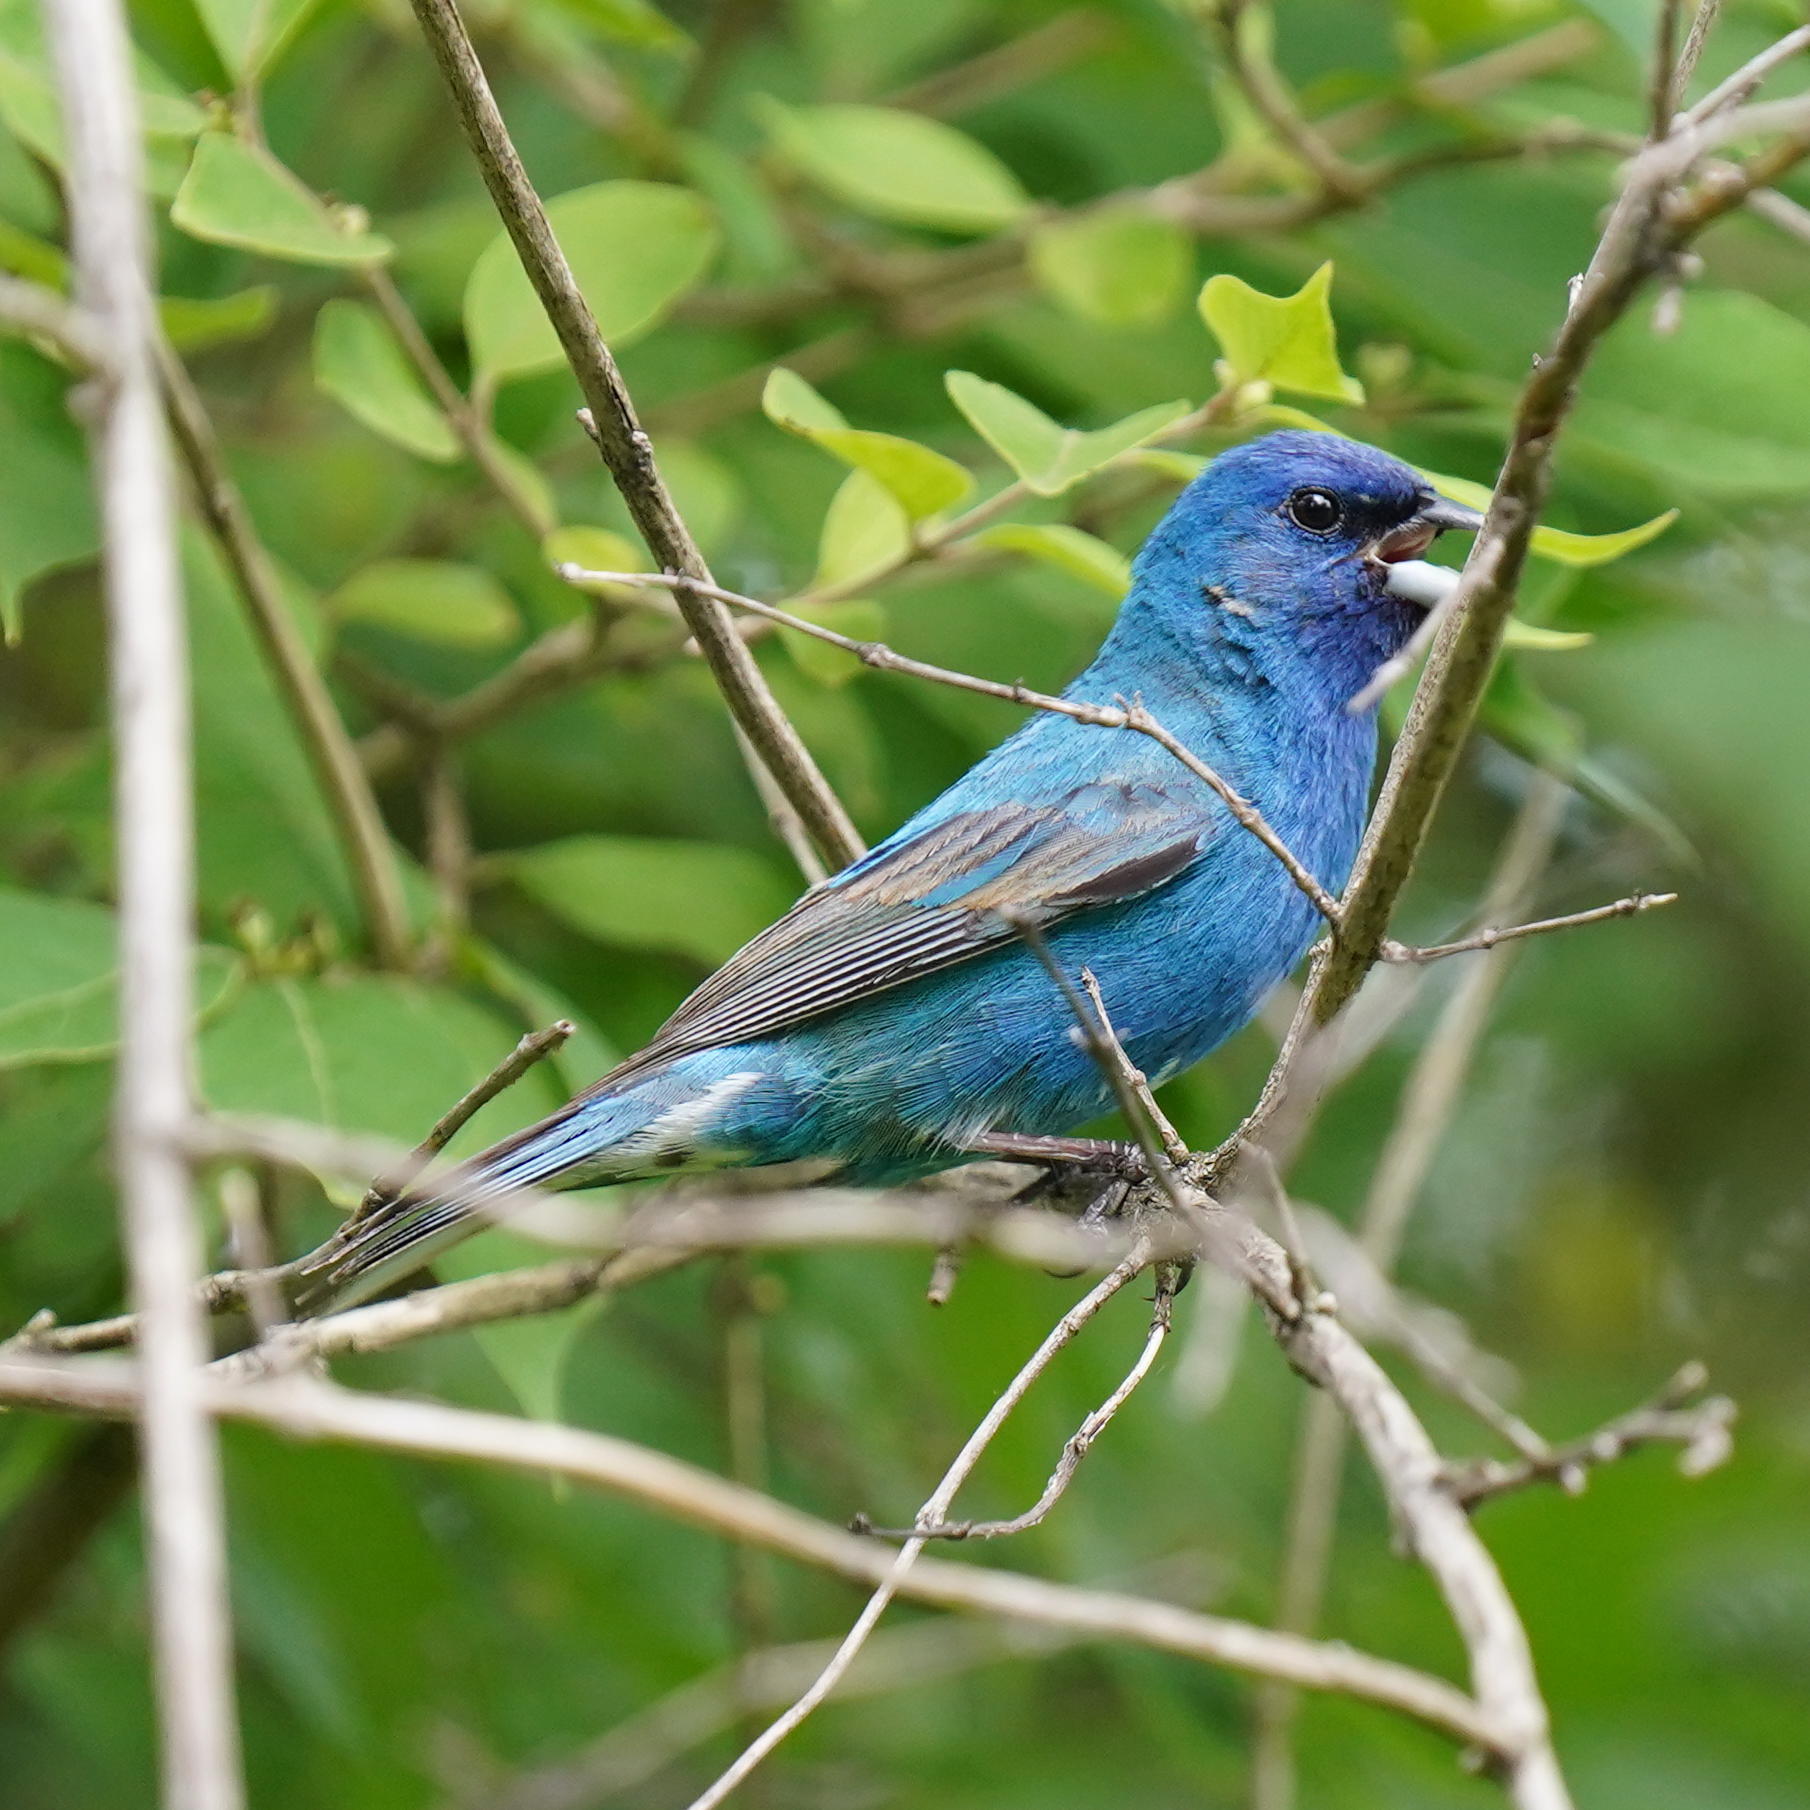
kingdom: Animalia
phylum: Chordata
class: Aves
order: Passeriformes
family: Cardinalidae
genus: Passerina
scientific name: Passerina cyanea
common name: Indigo bunting
